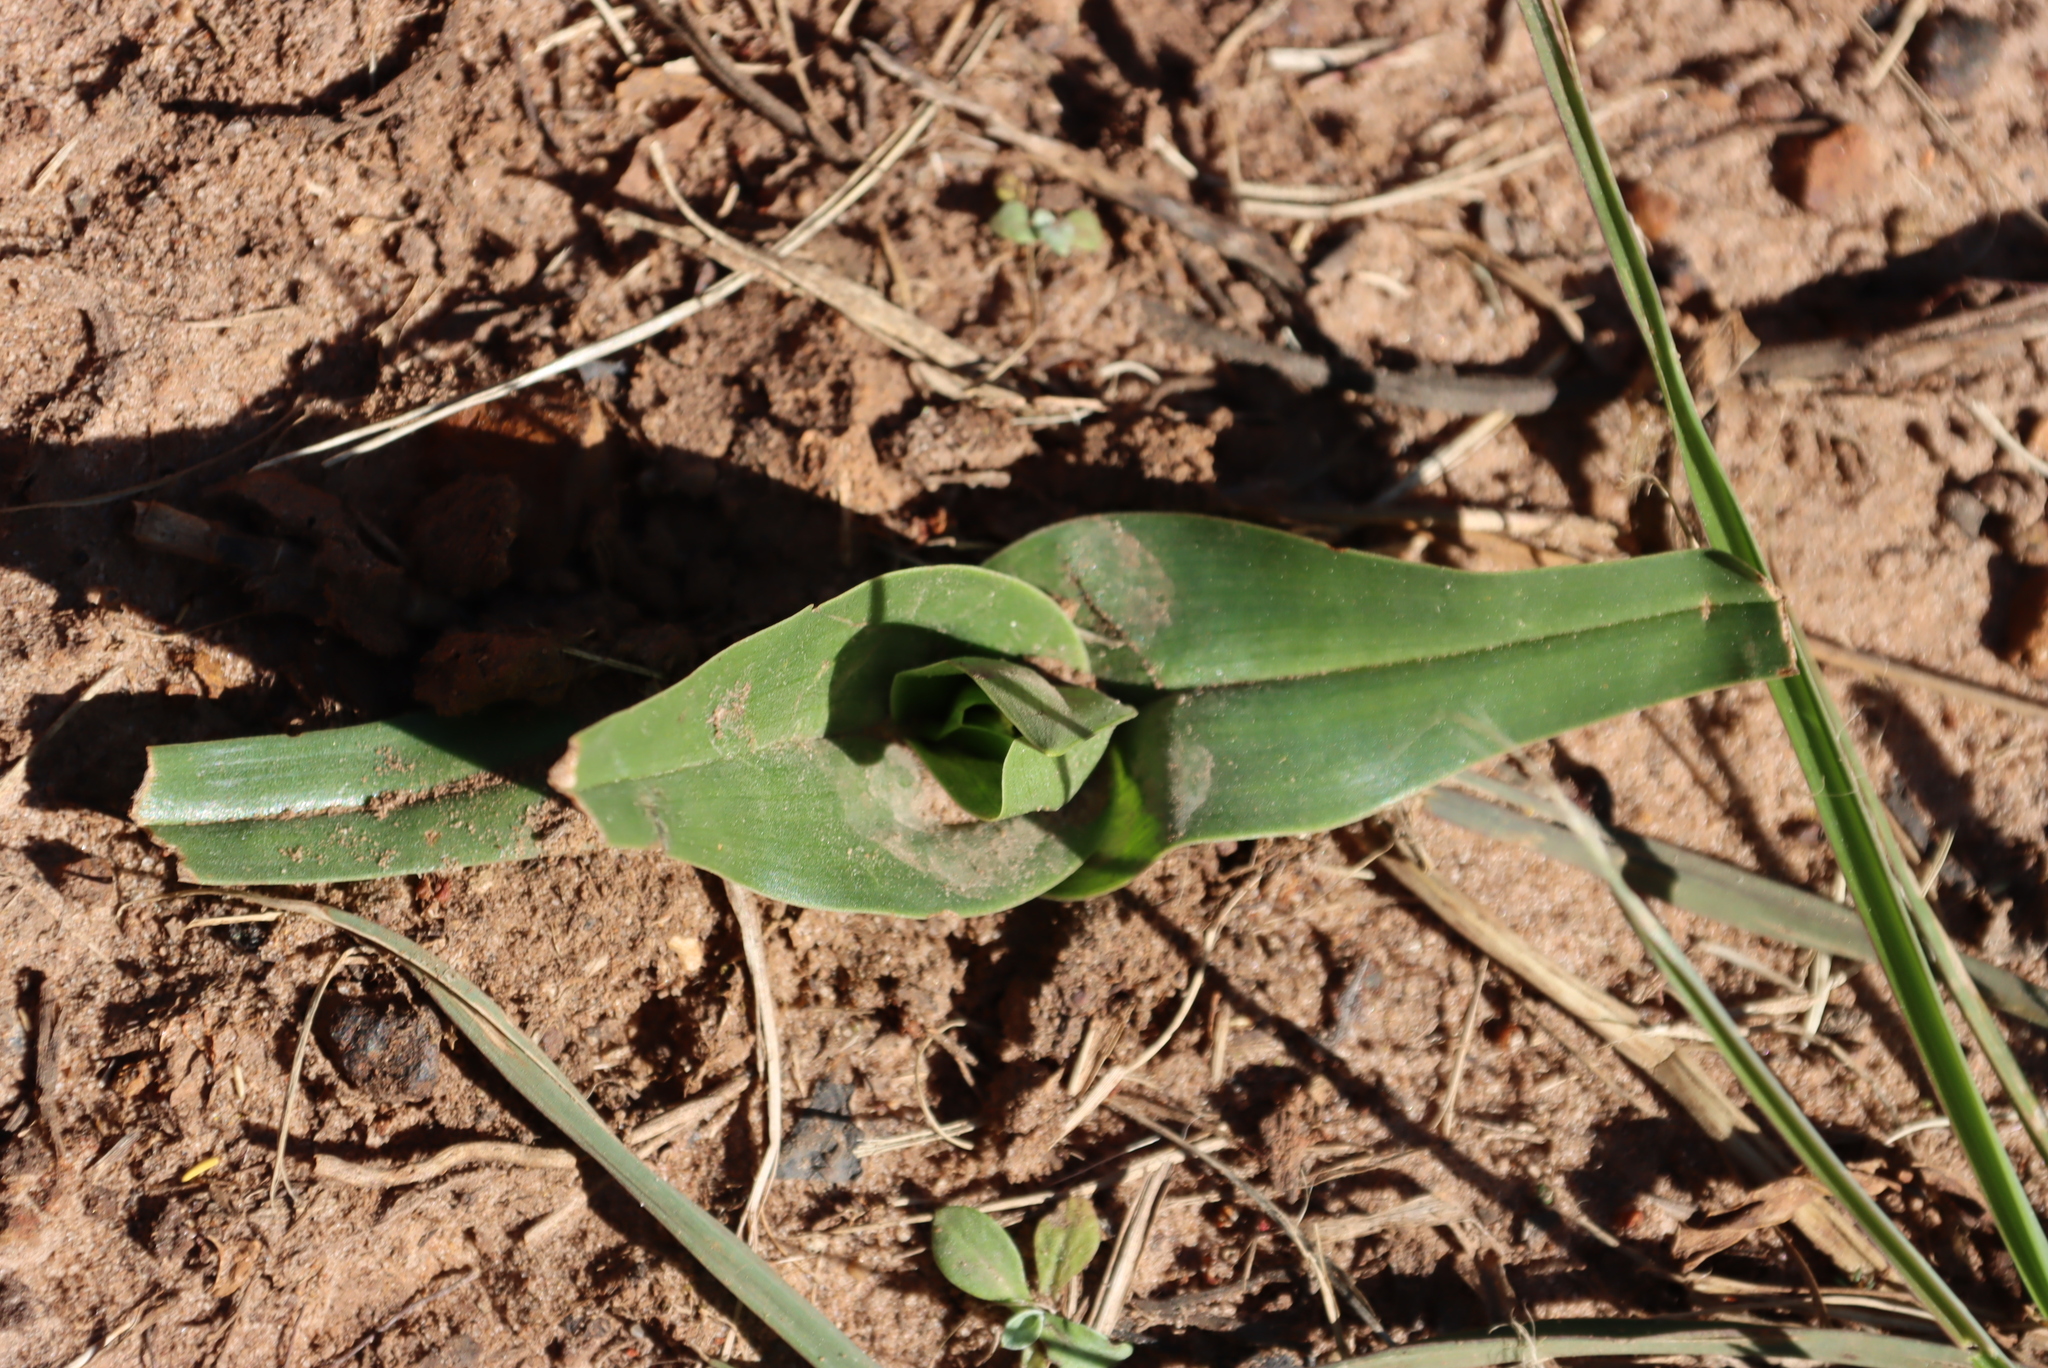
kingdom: Plantae
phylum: Tracheophyta
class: Liliopsida
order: Liliales
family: Colchicaceae
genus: Colchicum
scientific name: Colchicum eucomoides
